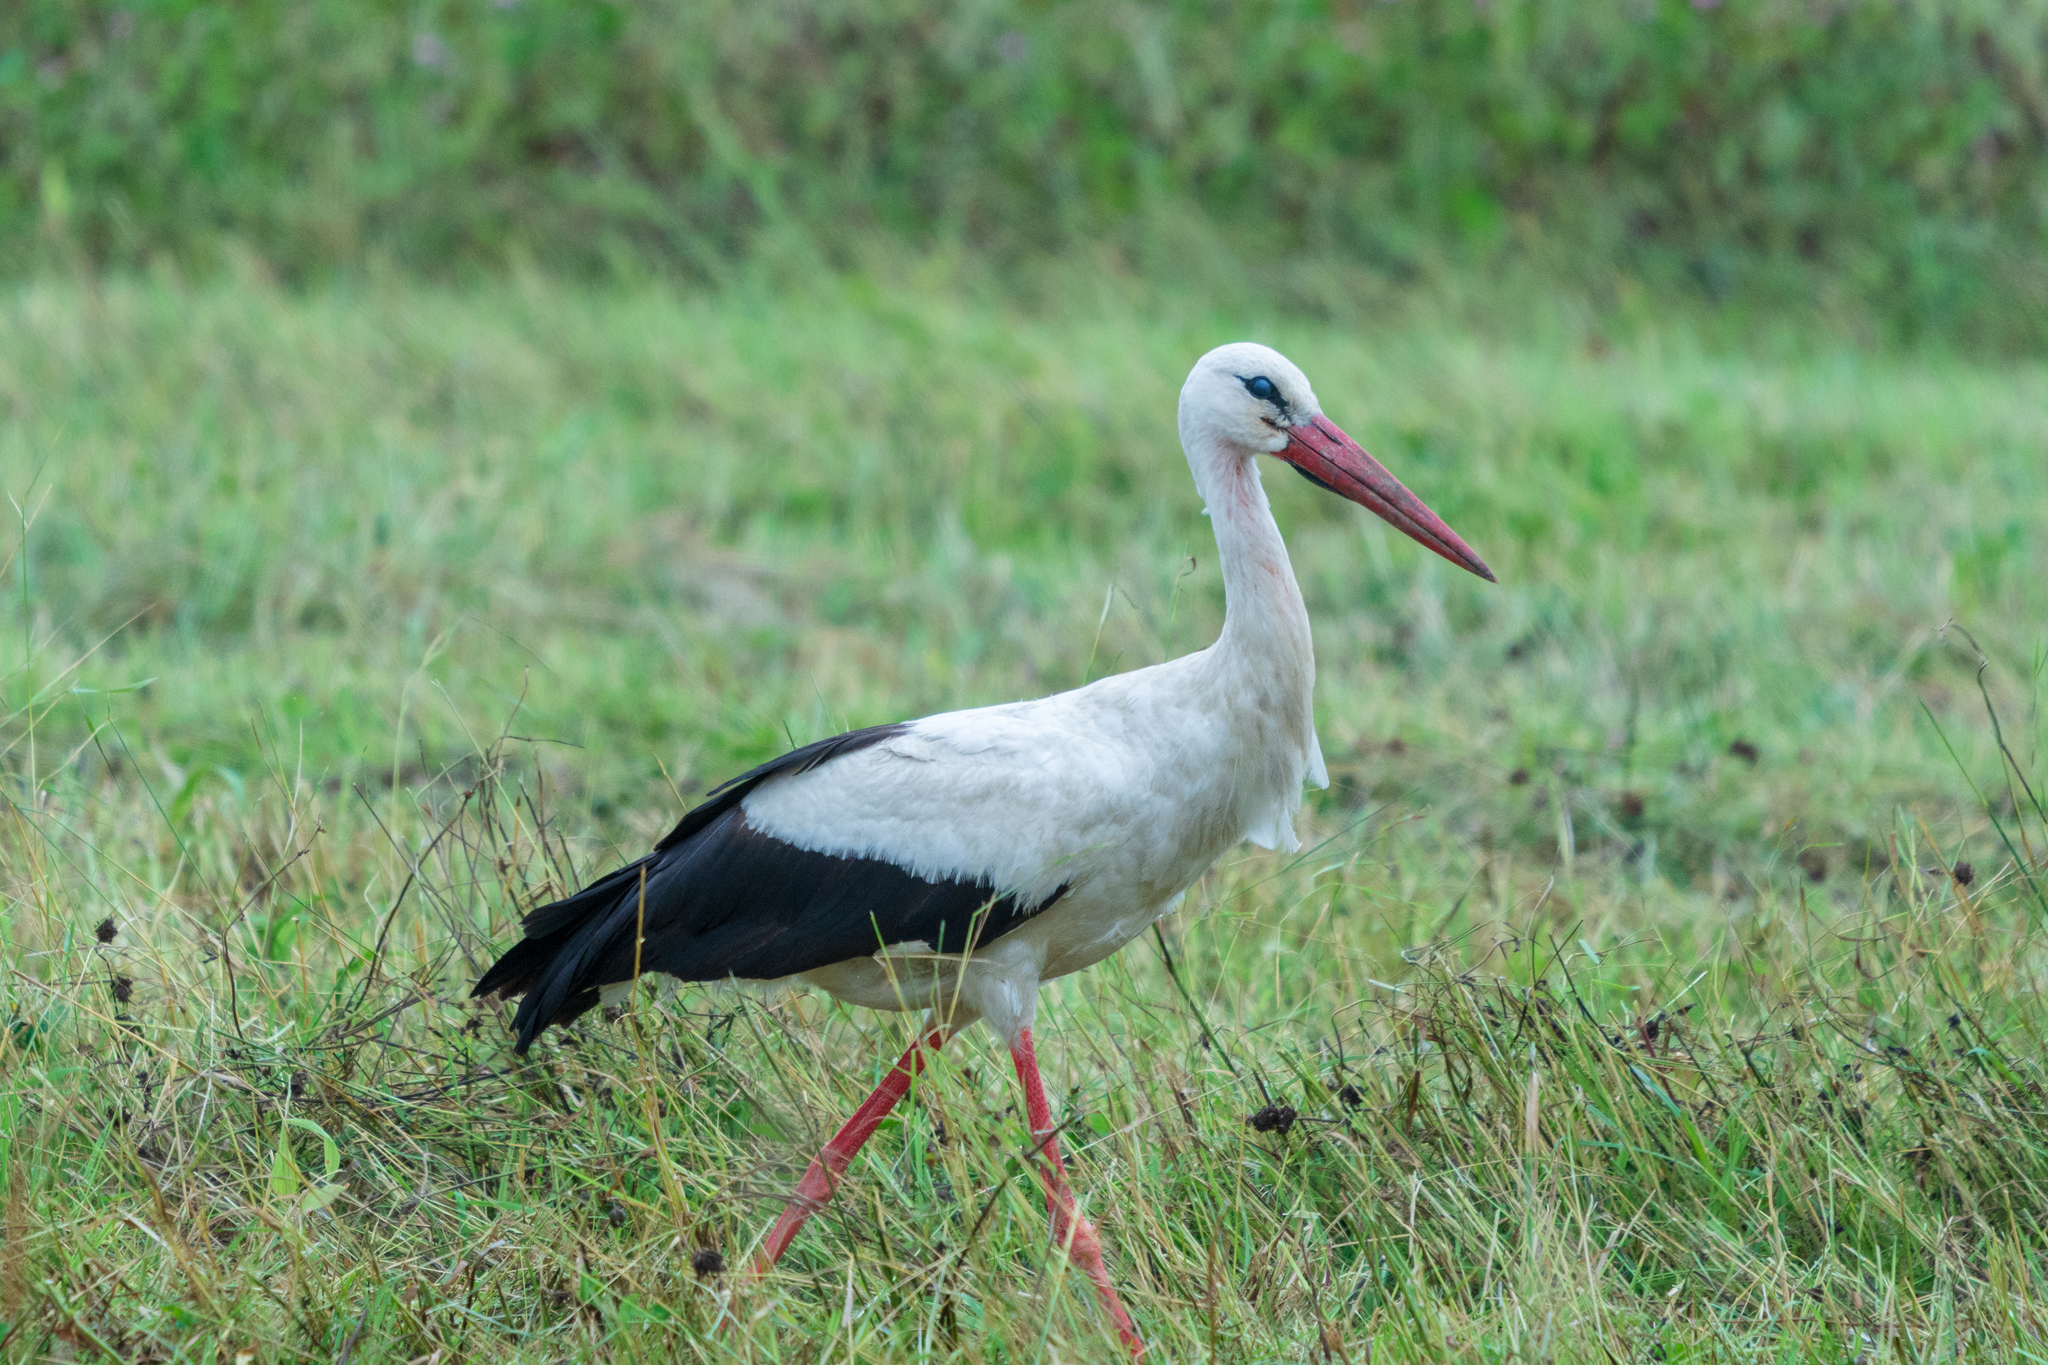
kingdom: Animalia
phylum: Chordata
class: Aves
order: Ciconiiformes
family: Ciconiidae
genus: Ciconia
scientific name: Ciconia ciconia
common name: White stork
